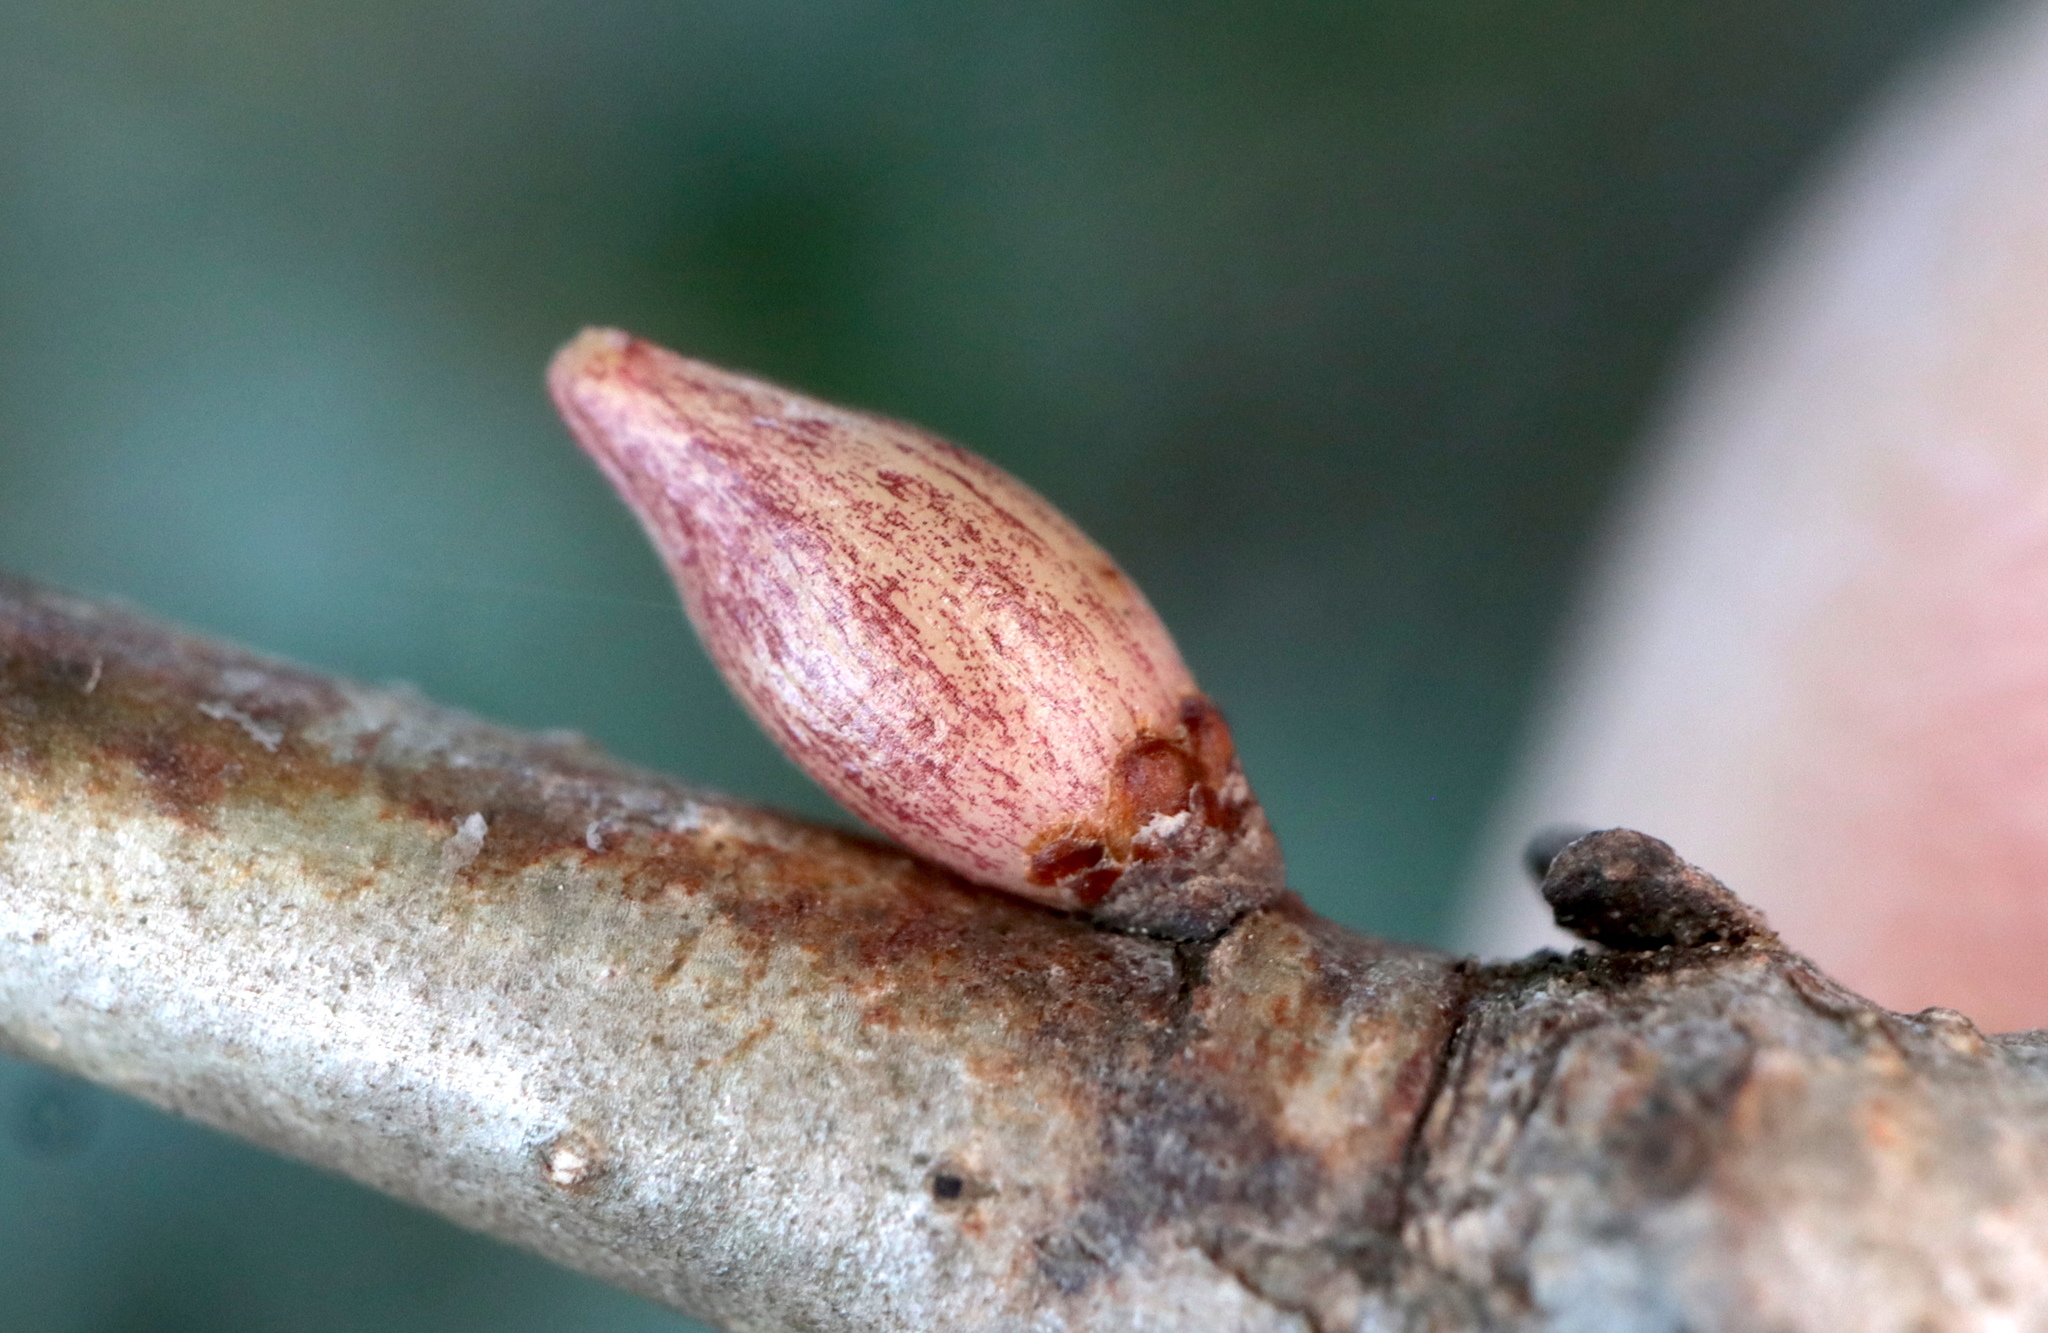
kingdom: Animalia
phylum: Arthropoda
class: Insecta
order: Hymenoptera
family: Cynipidae
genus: Andricus
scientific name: Andricus
